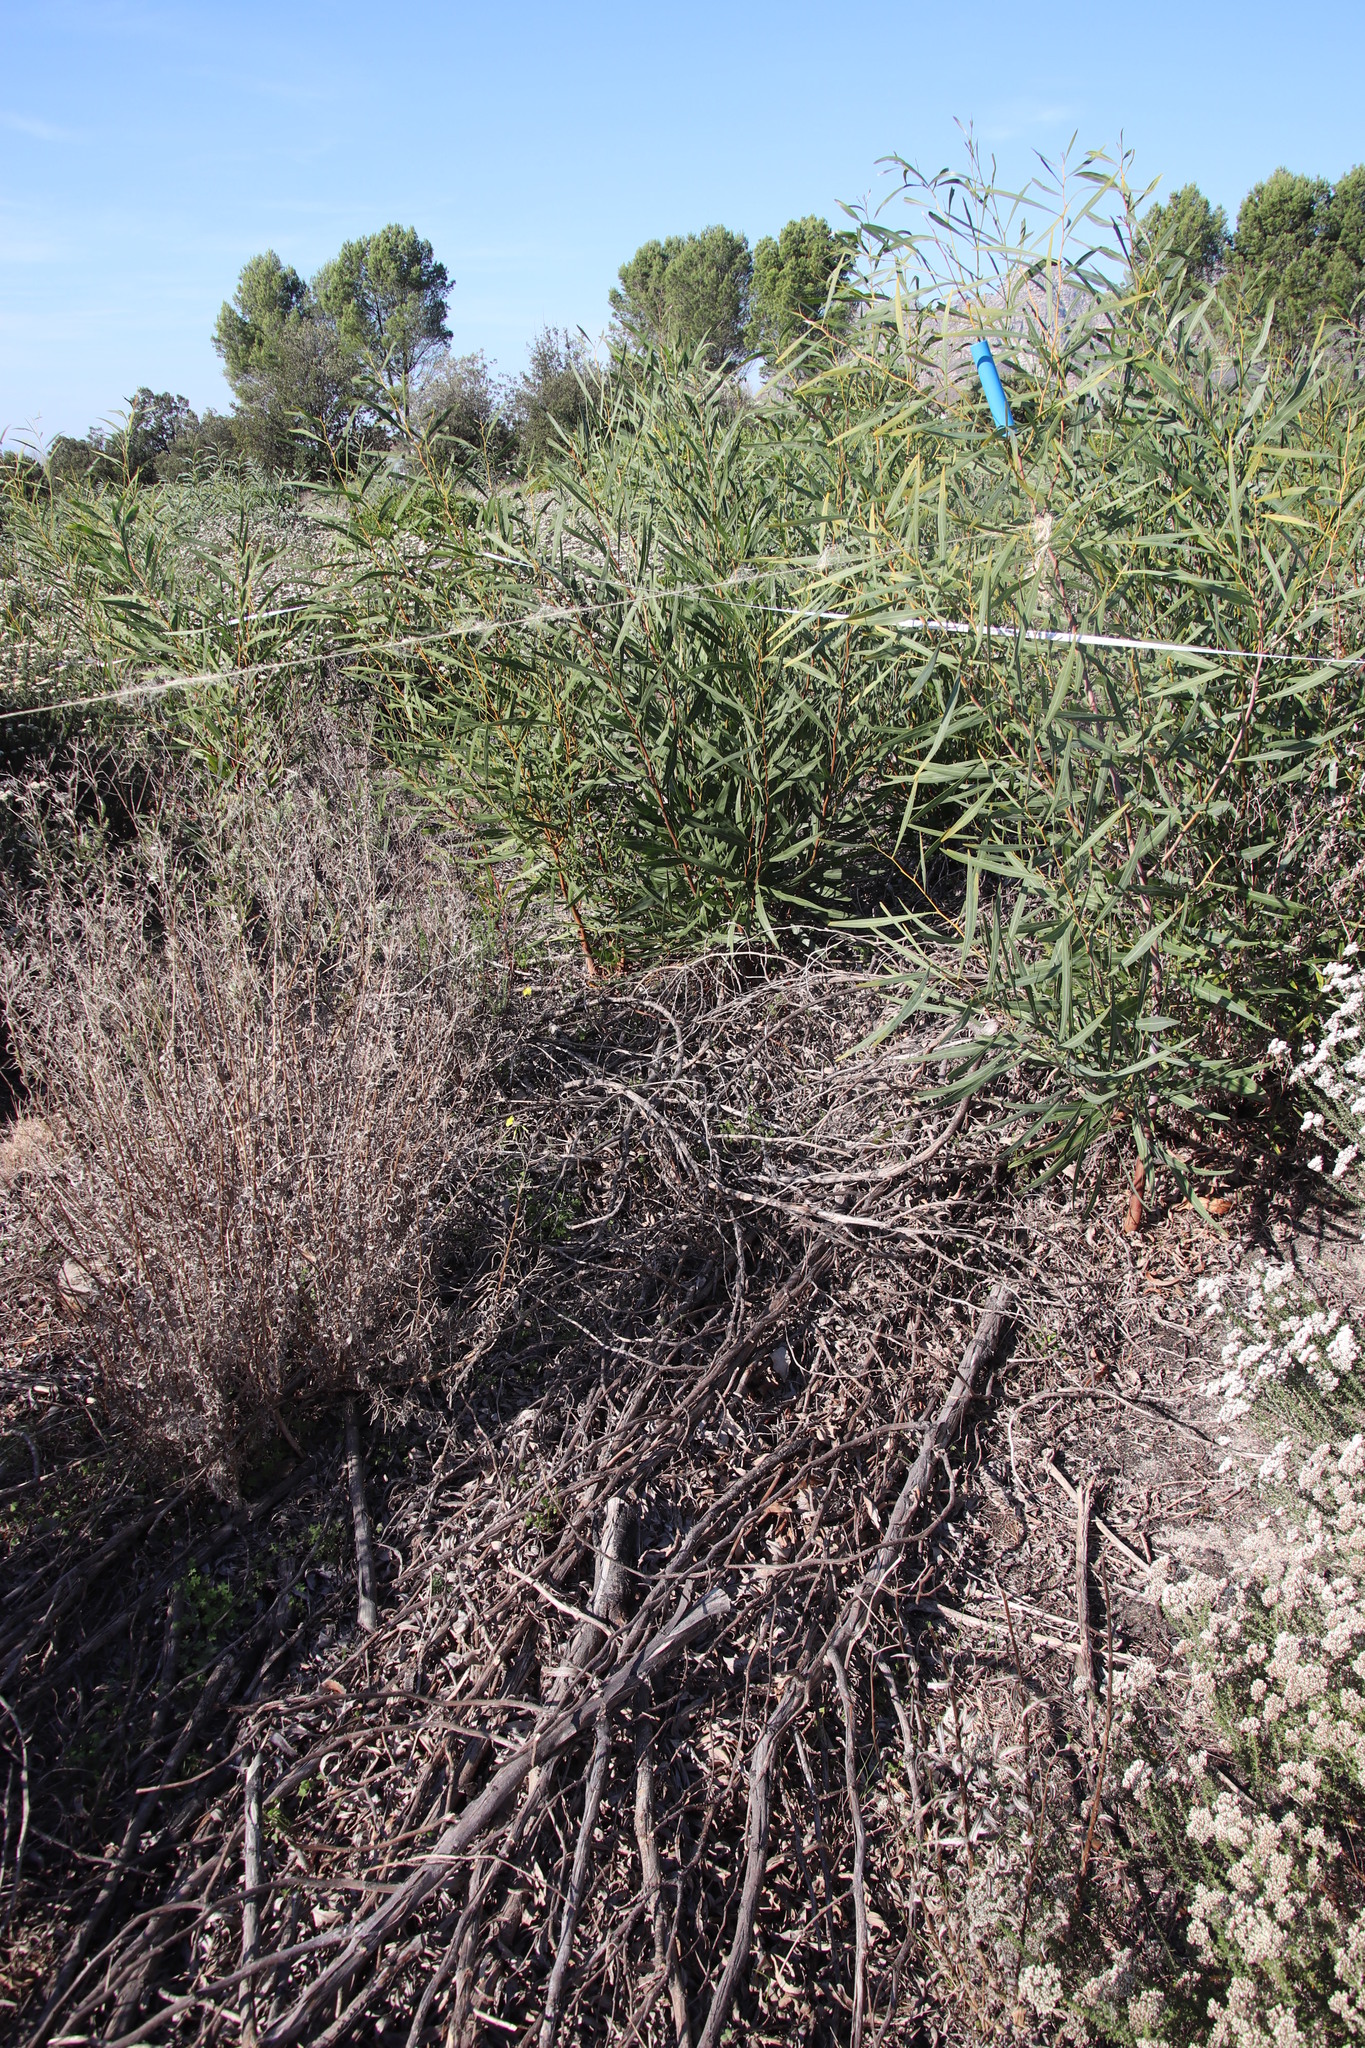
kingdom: Plantae
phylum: Tracheophyta
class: Magnoliopsida
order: Fabales
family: Fabaceae
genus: Acacia
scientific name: Acacia saligna
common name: Orange wattle
